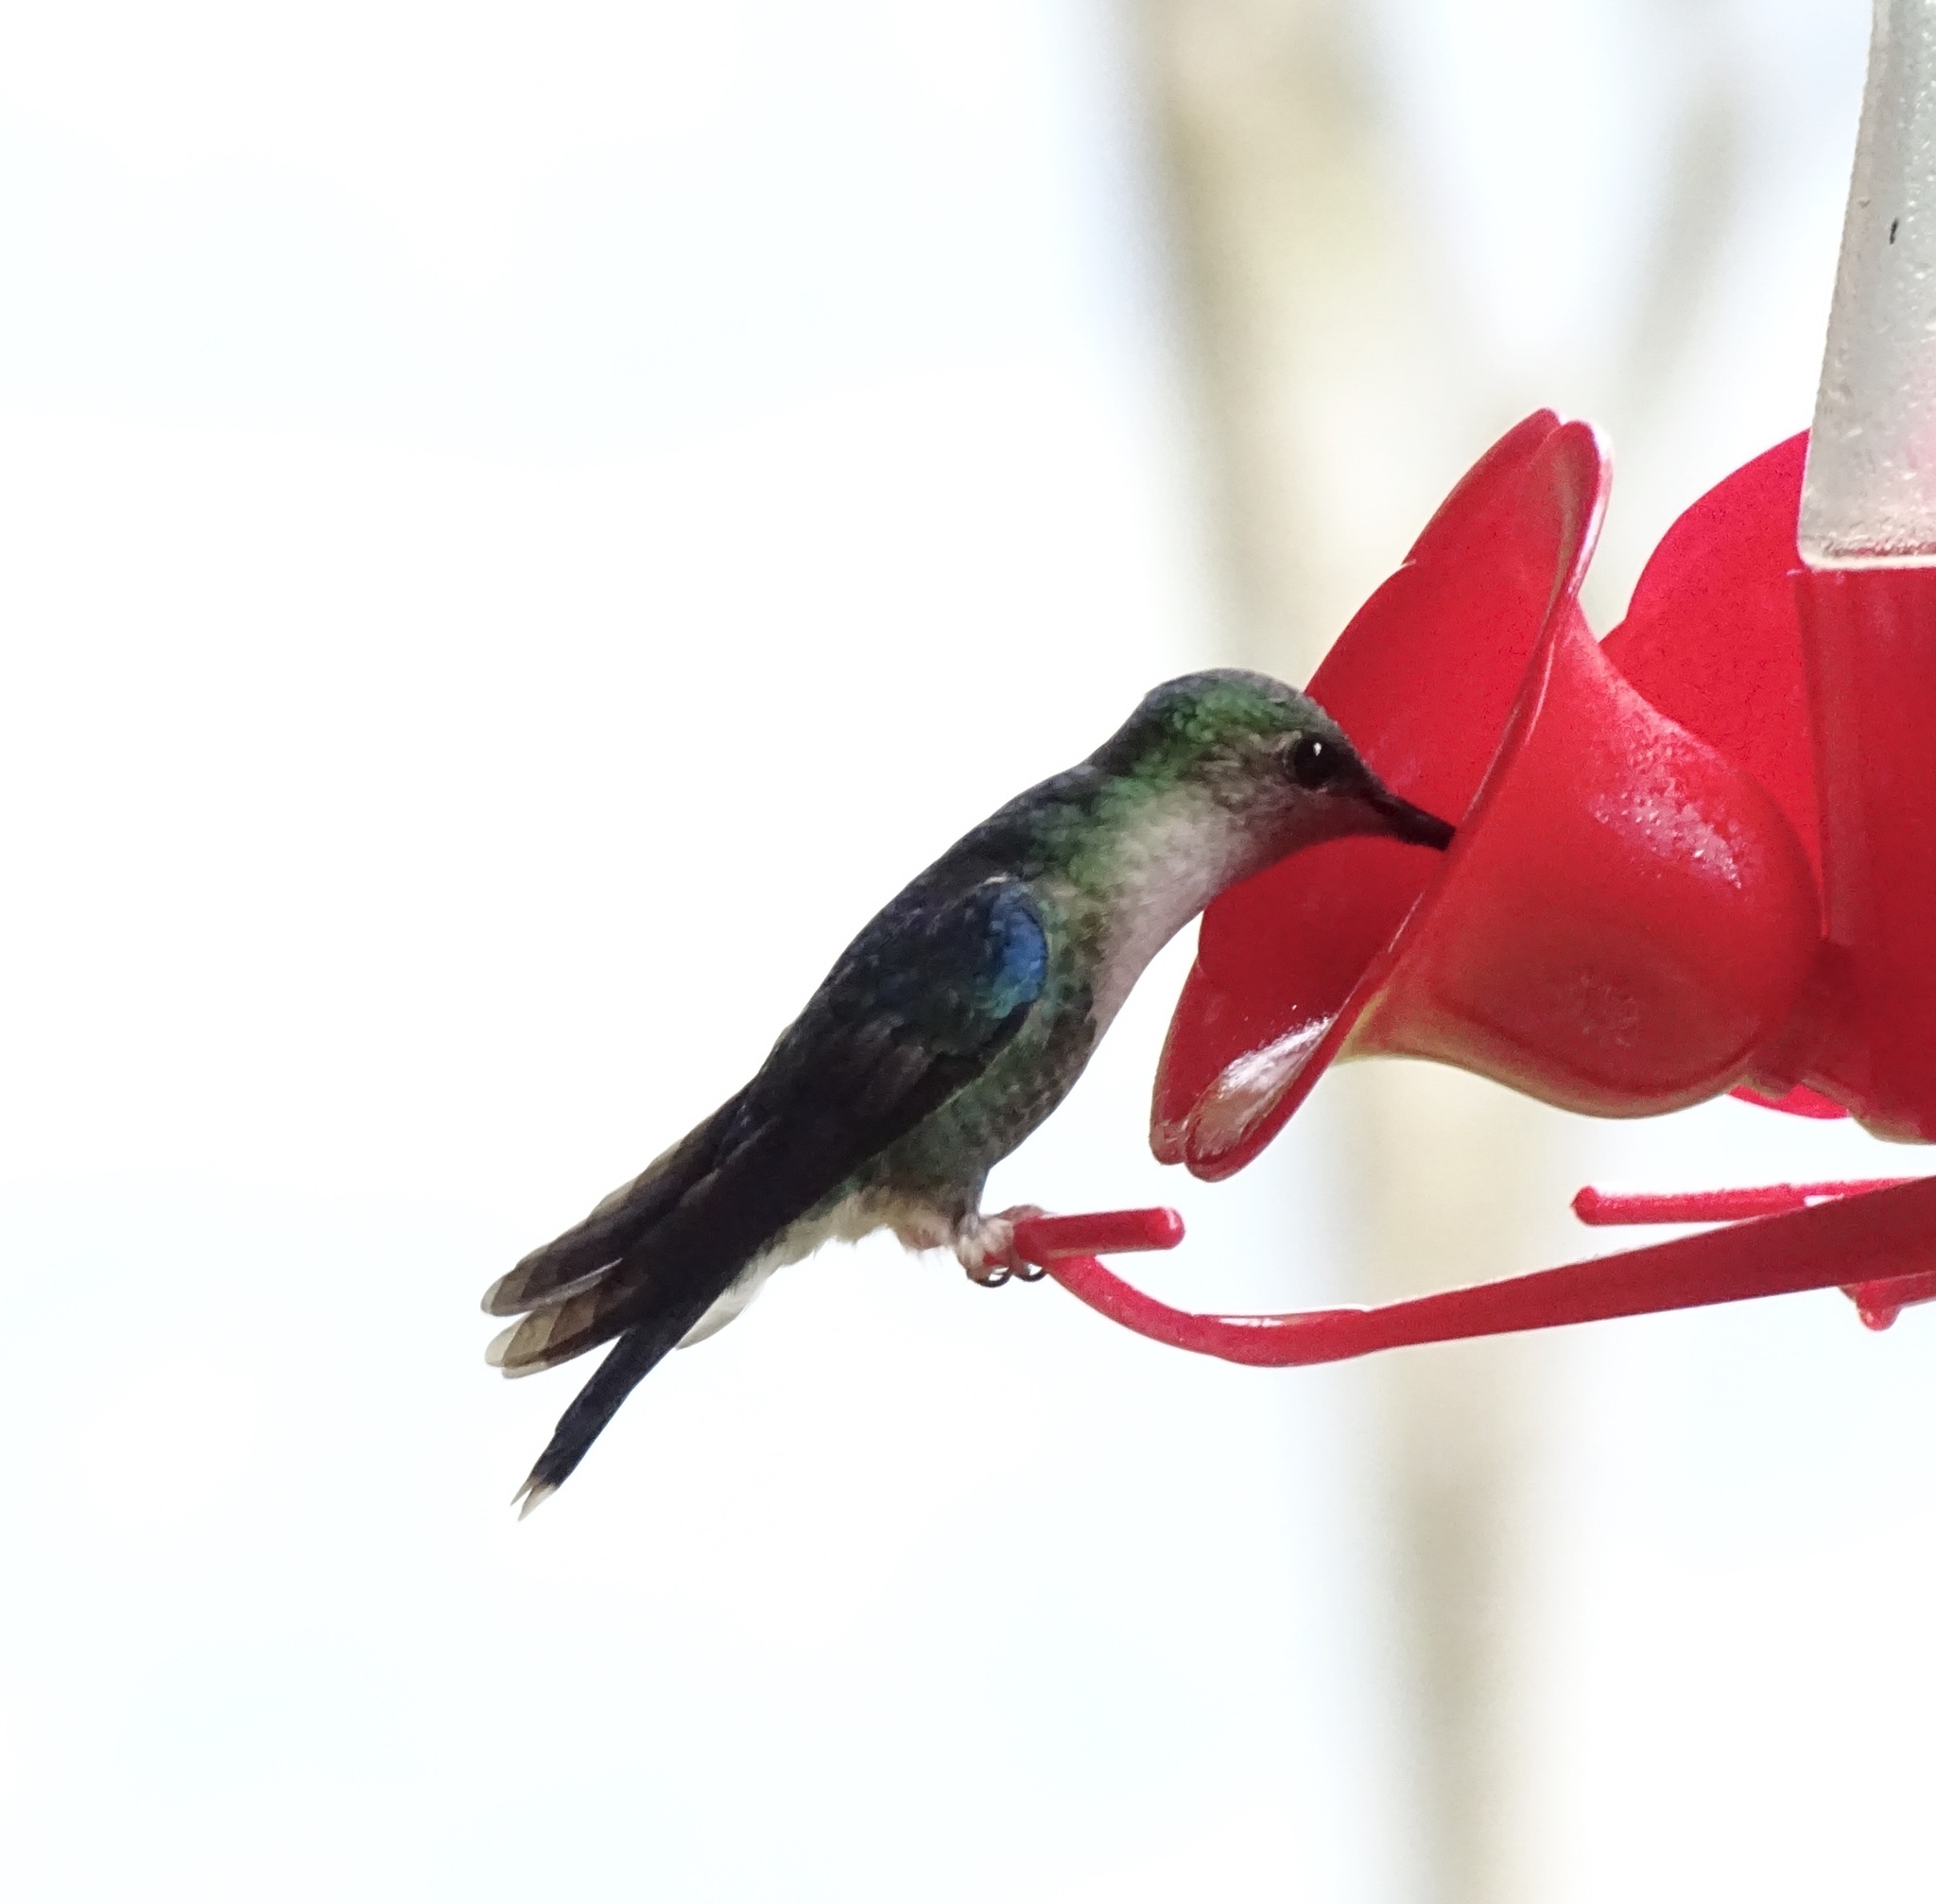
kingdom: Animalia
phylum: Chordata
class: Aves
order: Apodiformes
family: Trochilidae
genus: Thalurania
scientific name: Thalurania colombica
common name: Crowned woodnymph
